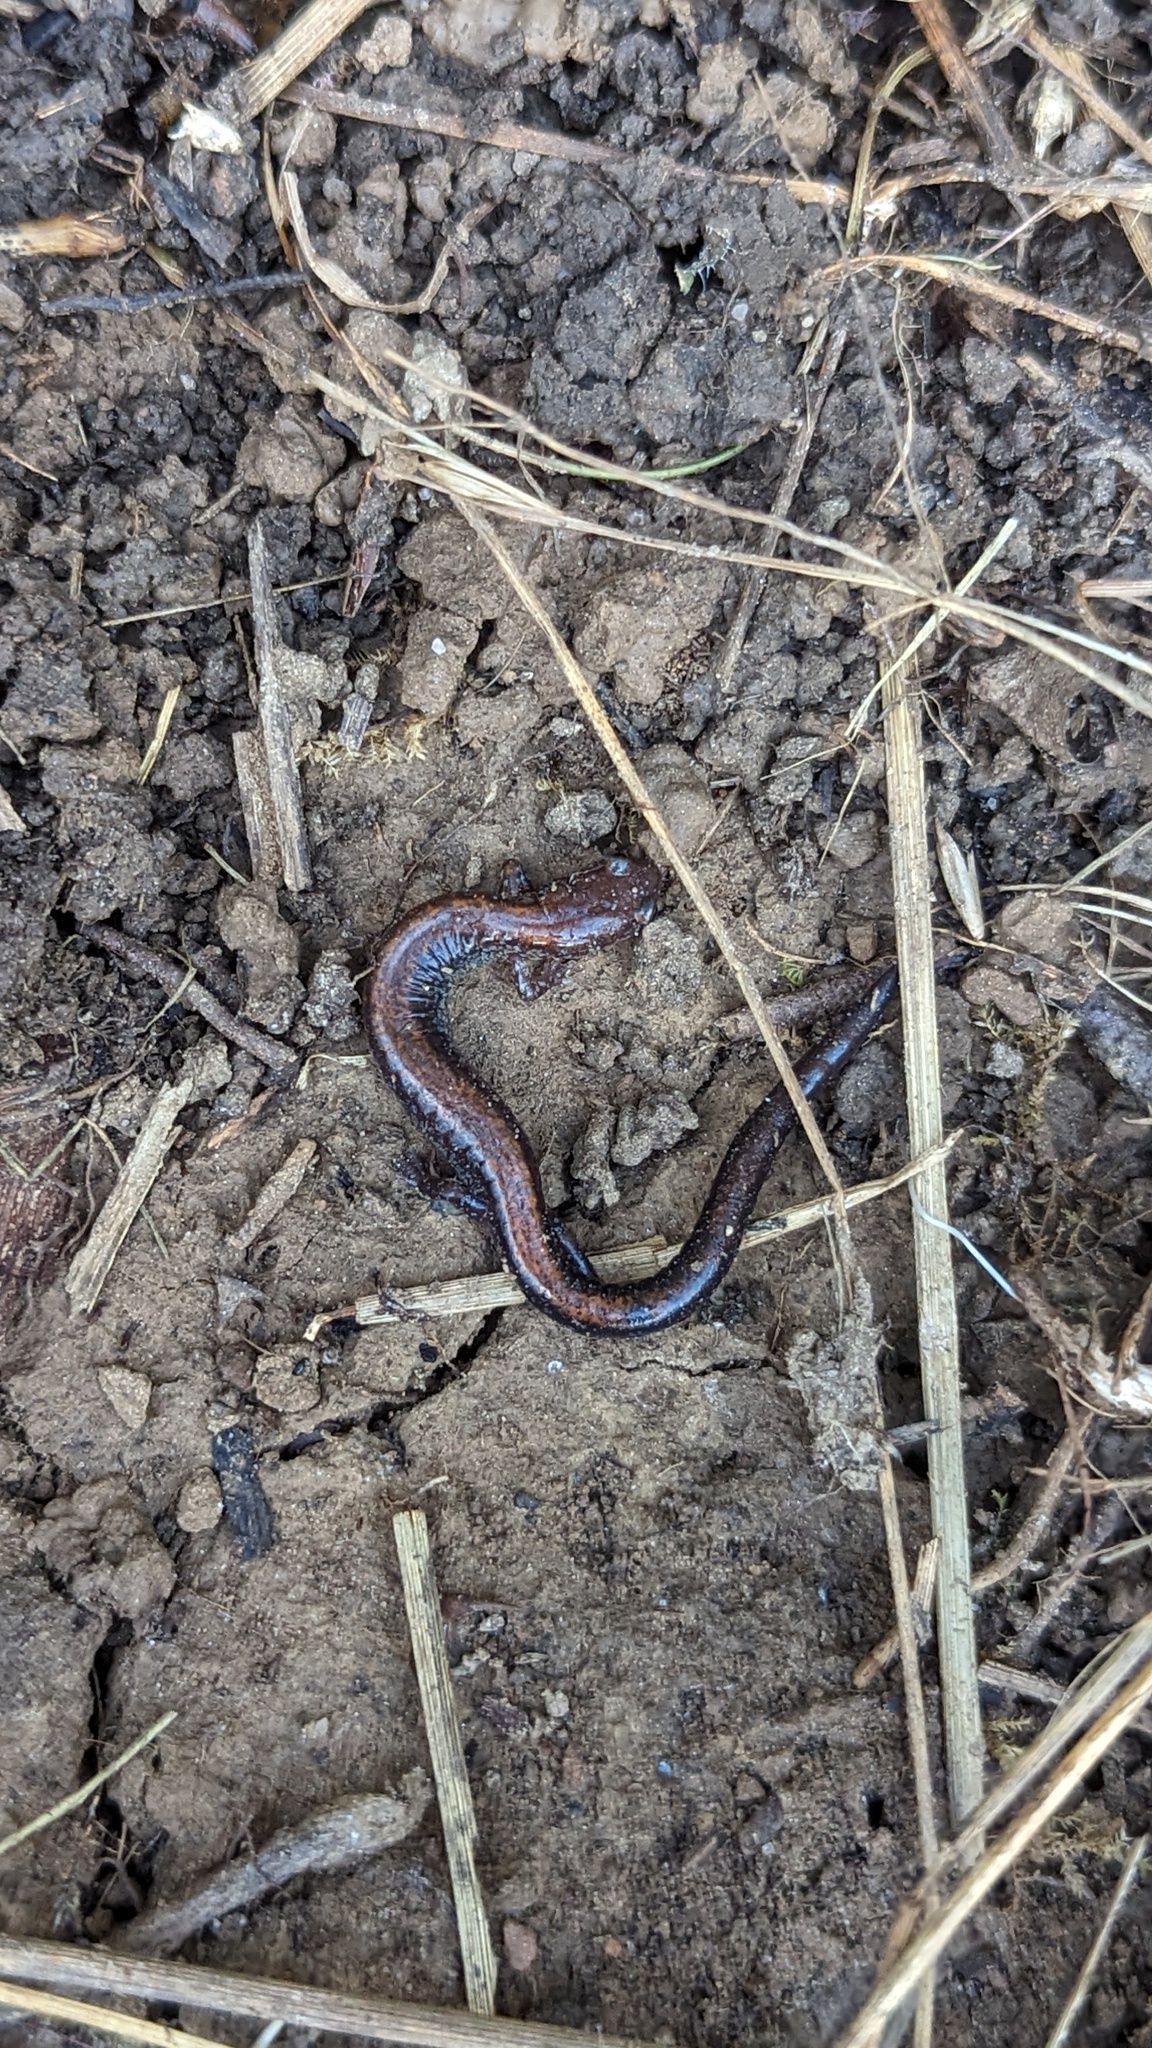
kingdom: Animalia
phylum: Chordata
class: Amphibia
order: Caudata
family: Plethodontidae
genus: Plethodon
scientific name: Plethodon cinereus
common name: Redback salamander
